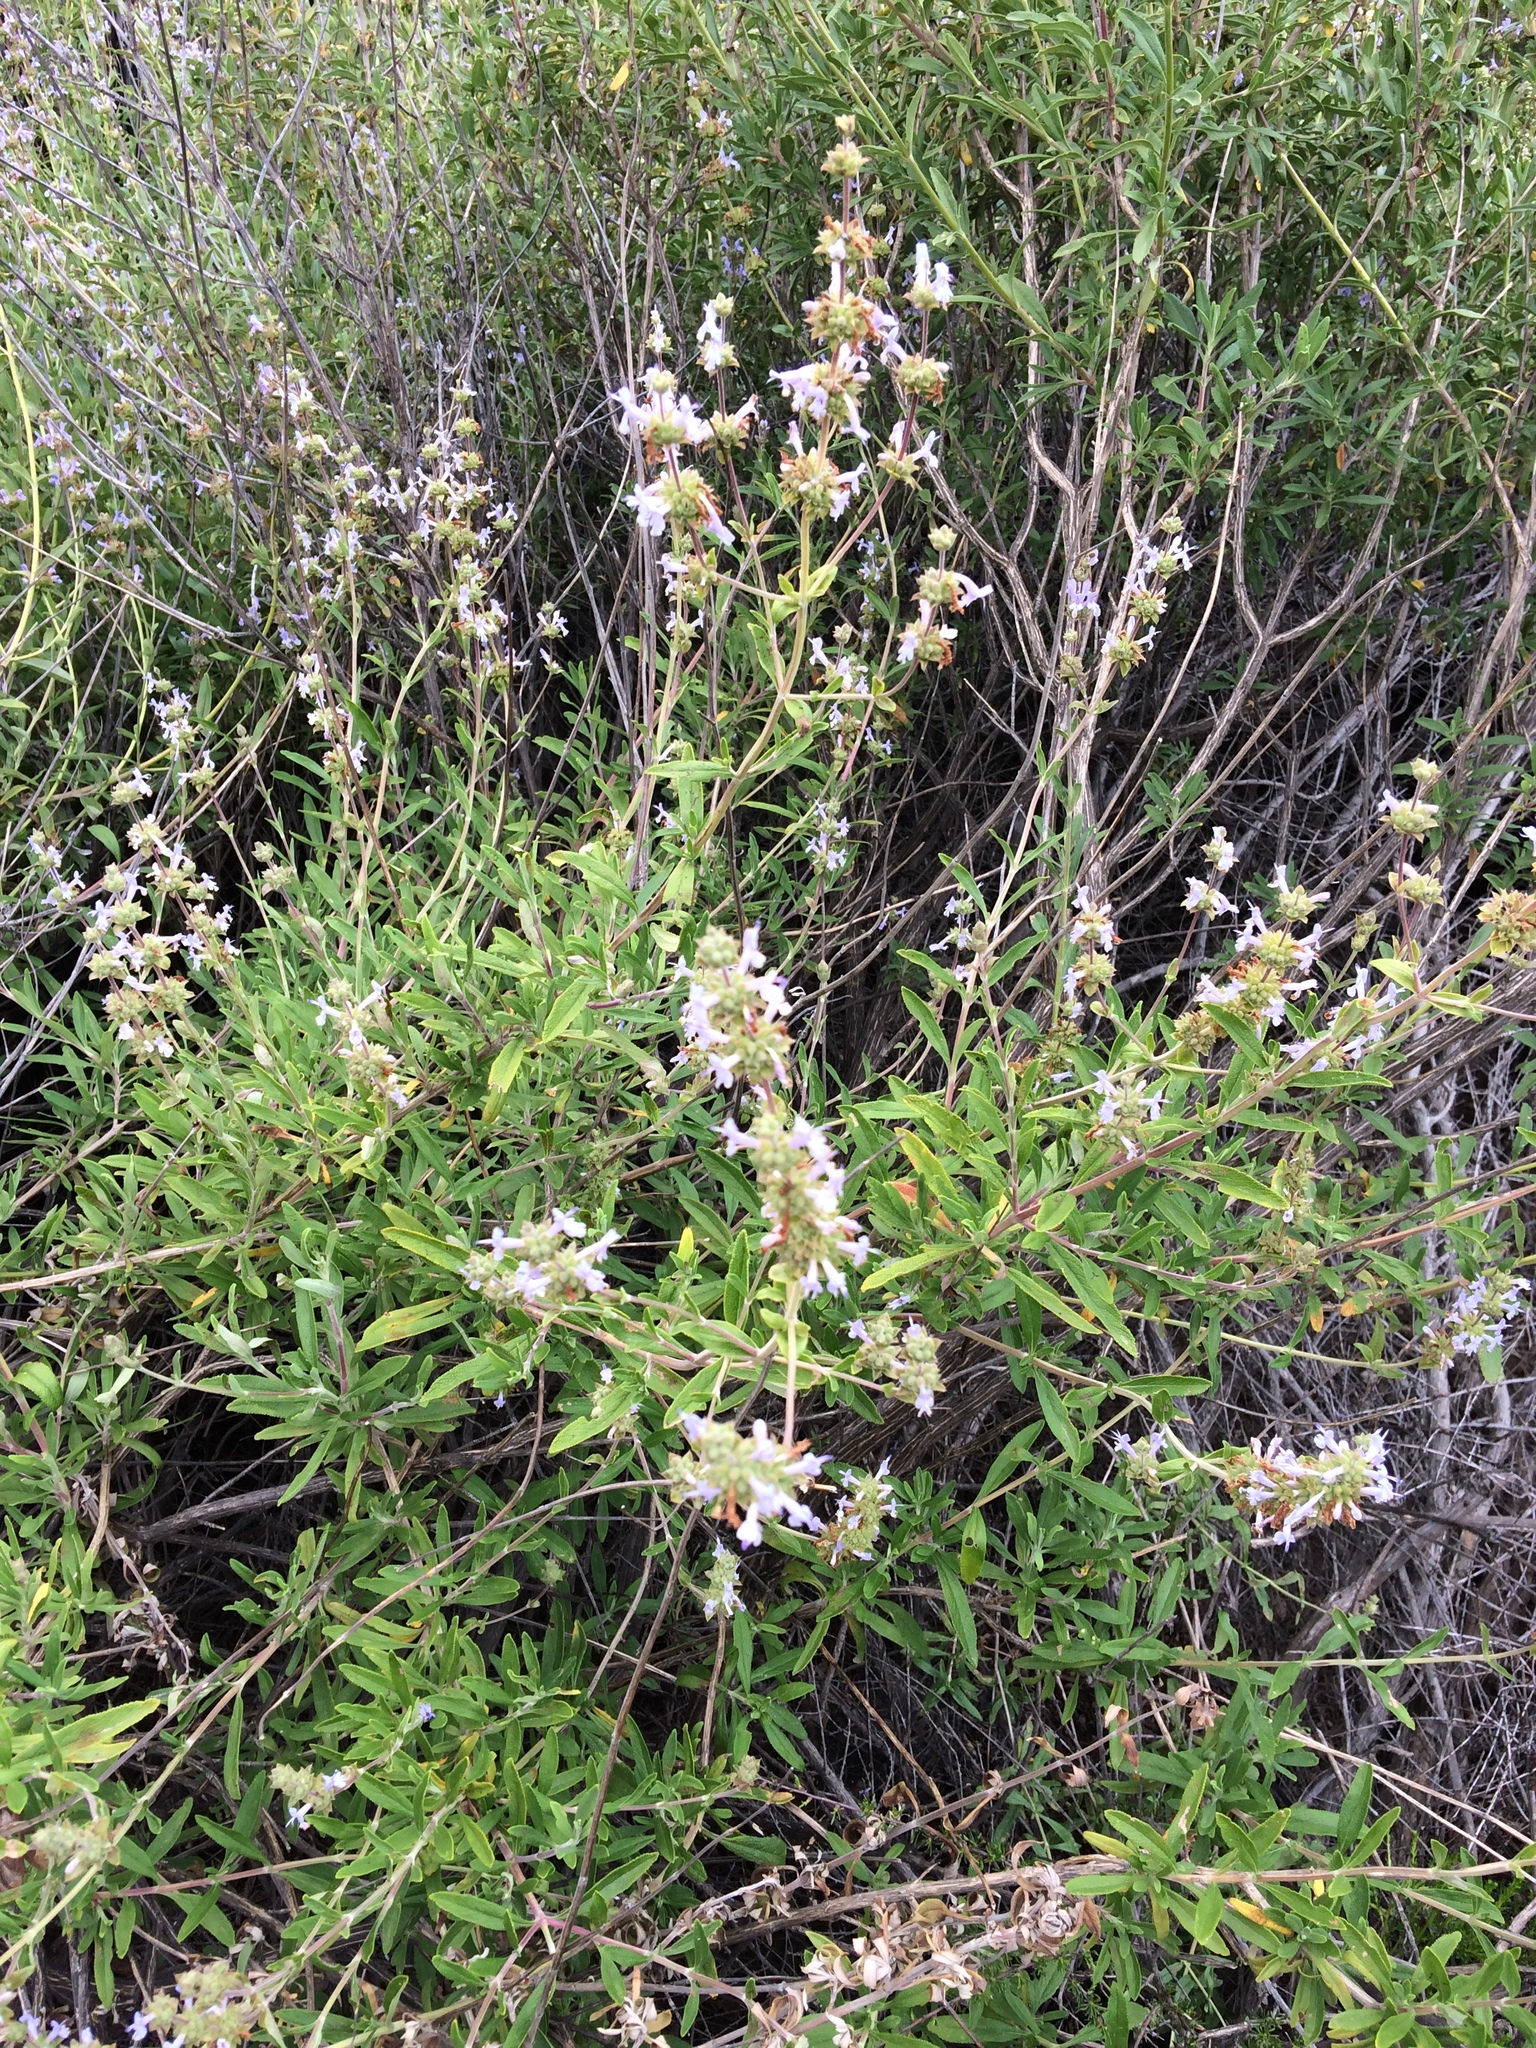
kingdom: Plantae
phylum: Tracheophyta
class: Magnoliopsida
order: Lamiales
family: Lamiaceae
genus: Salvia
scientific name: Salvia mellifera
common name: Black sage
